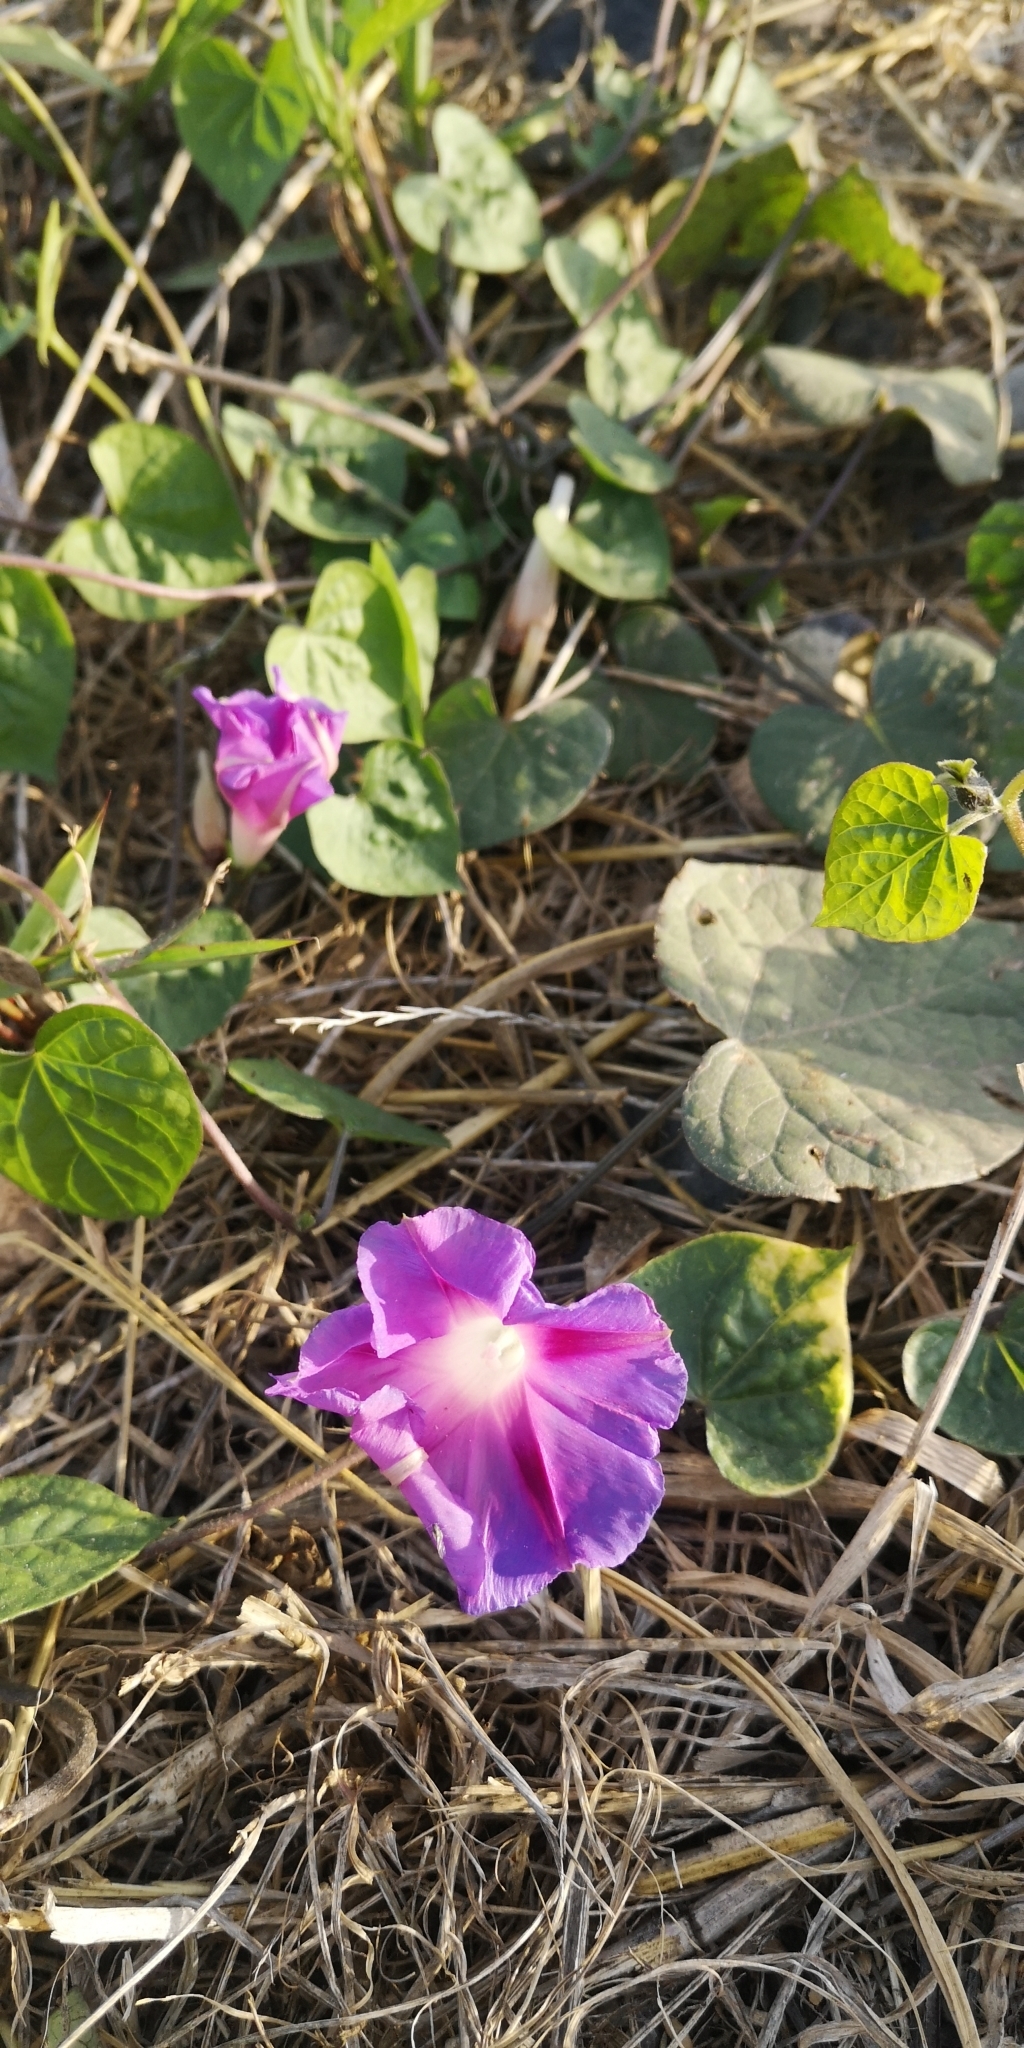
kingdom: Plantae
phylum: Tracheophyta
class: Magnoliopsida
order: Solanales
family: Convolvulaceae
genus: Ipomoea
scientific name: Ipomoea purpurea
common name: Common morning-glory
